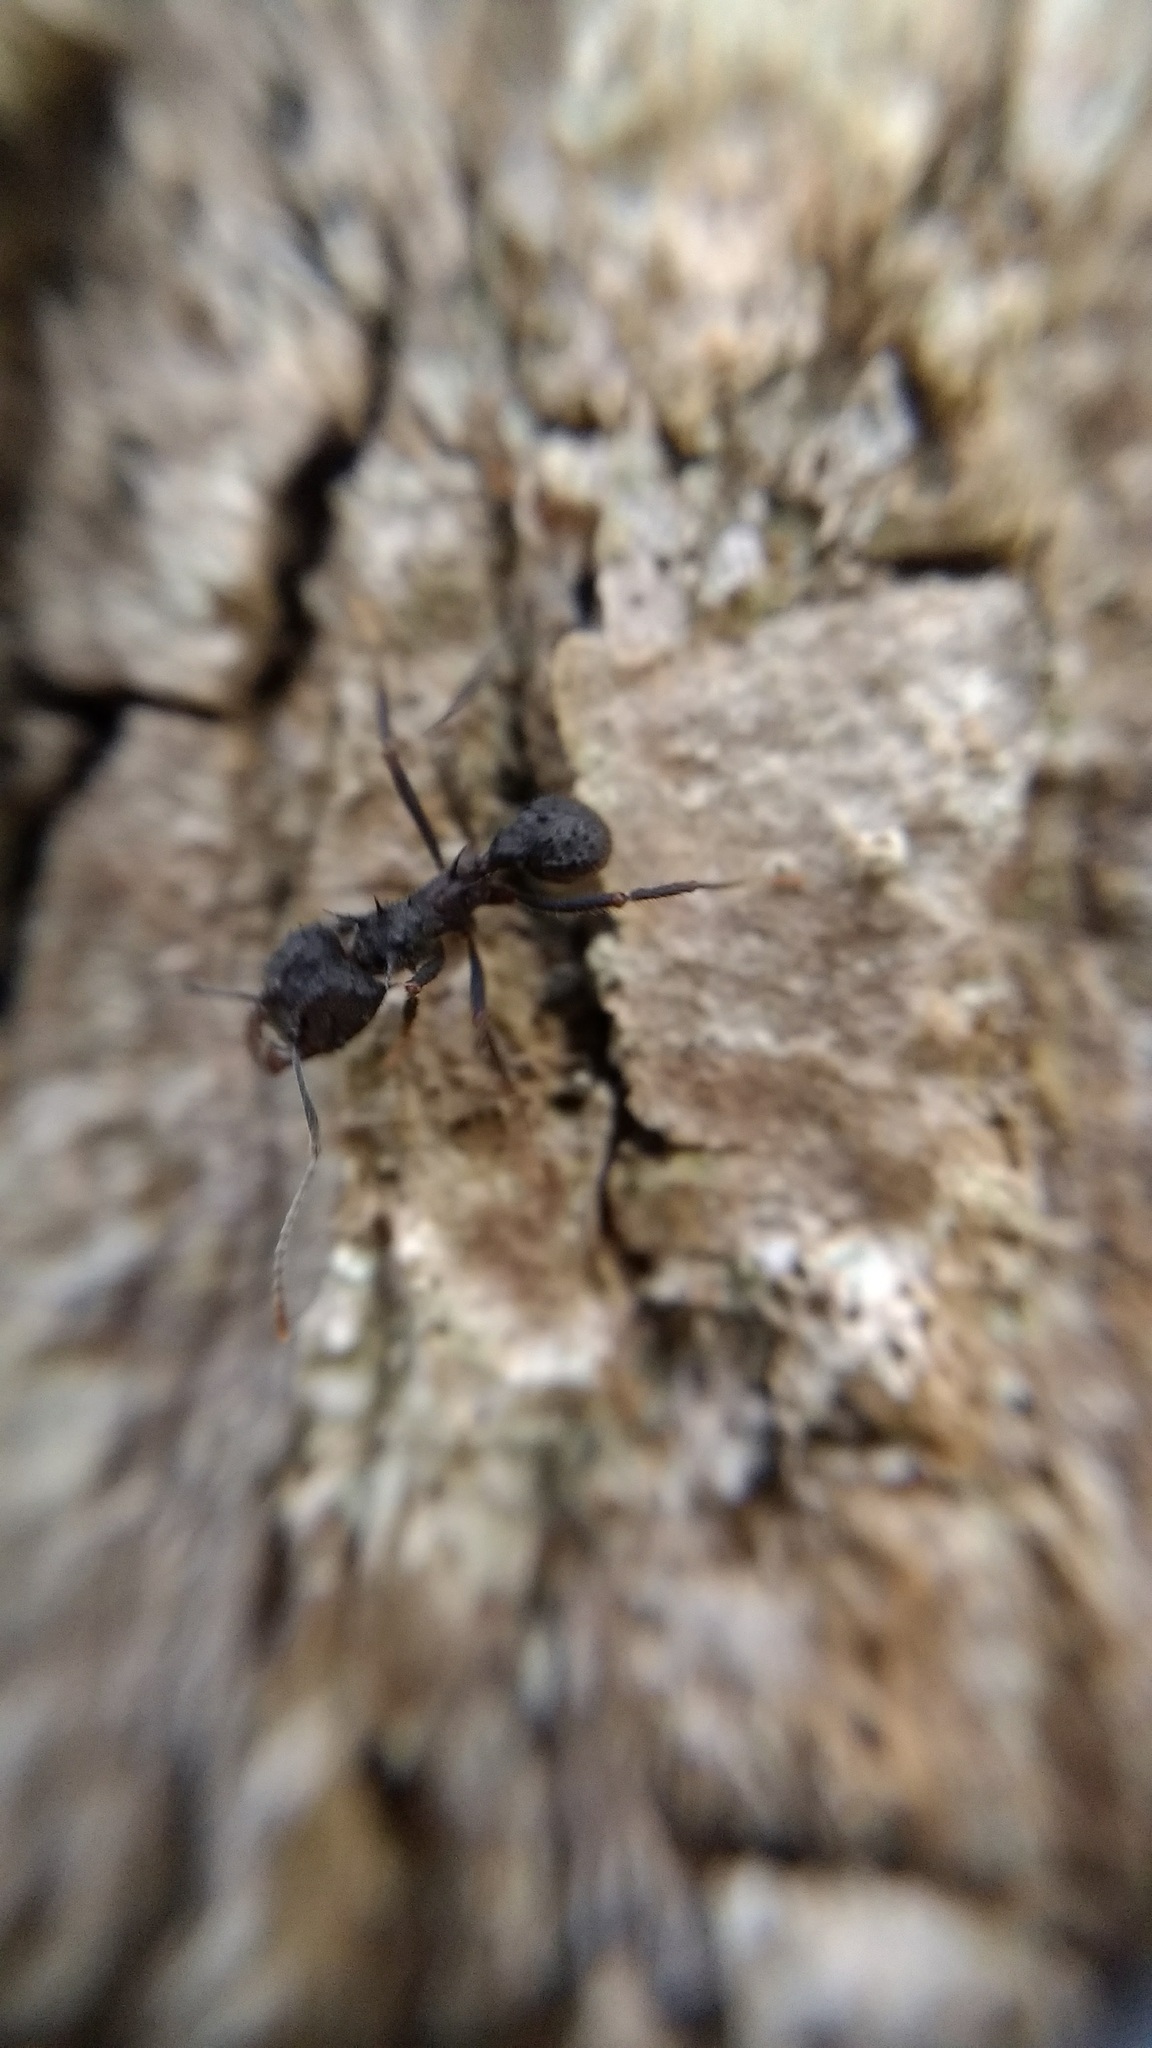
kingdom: Animalia
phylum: Arthropoda
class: Insecta
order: Hymenoptera
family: Formicidae
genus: Acromyrmex
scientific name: Acromyrmex lundii
